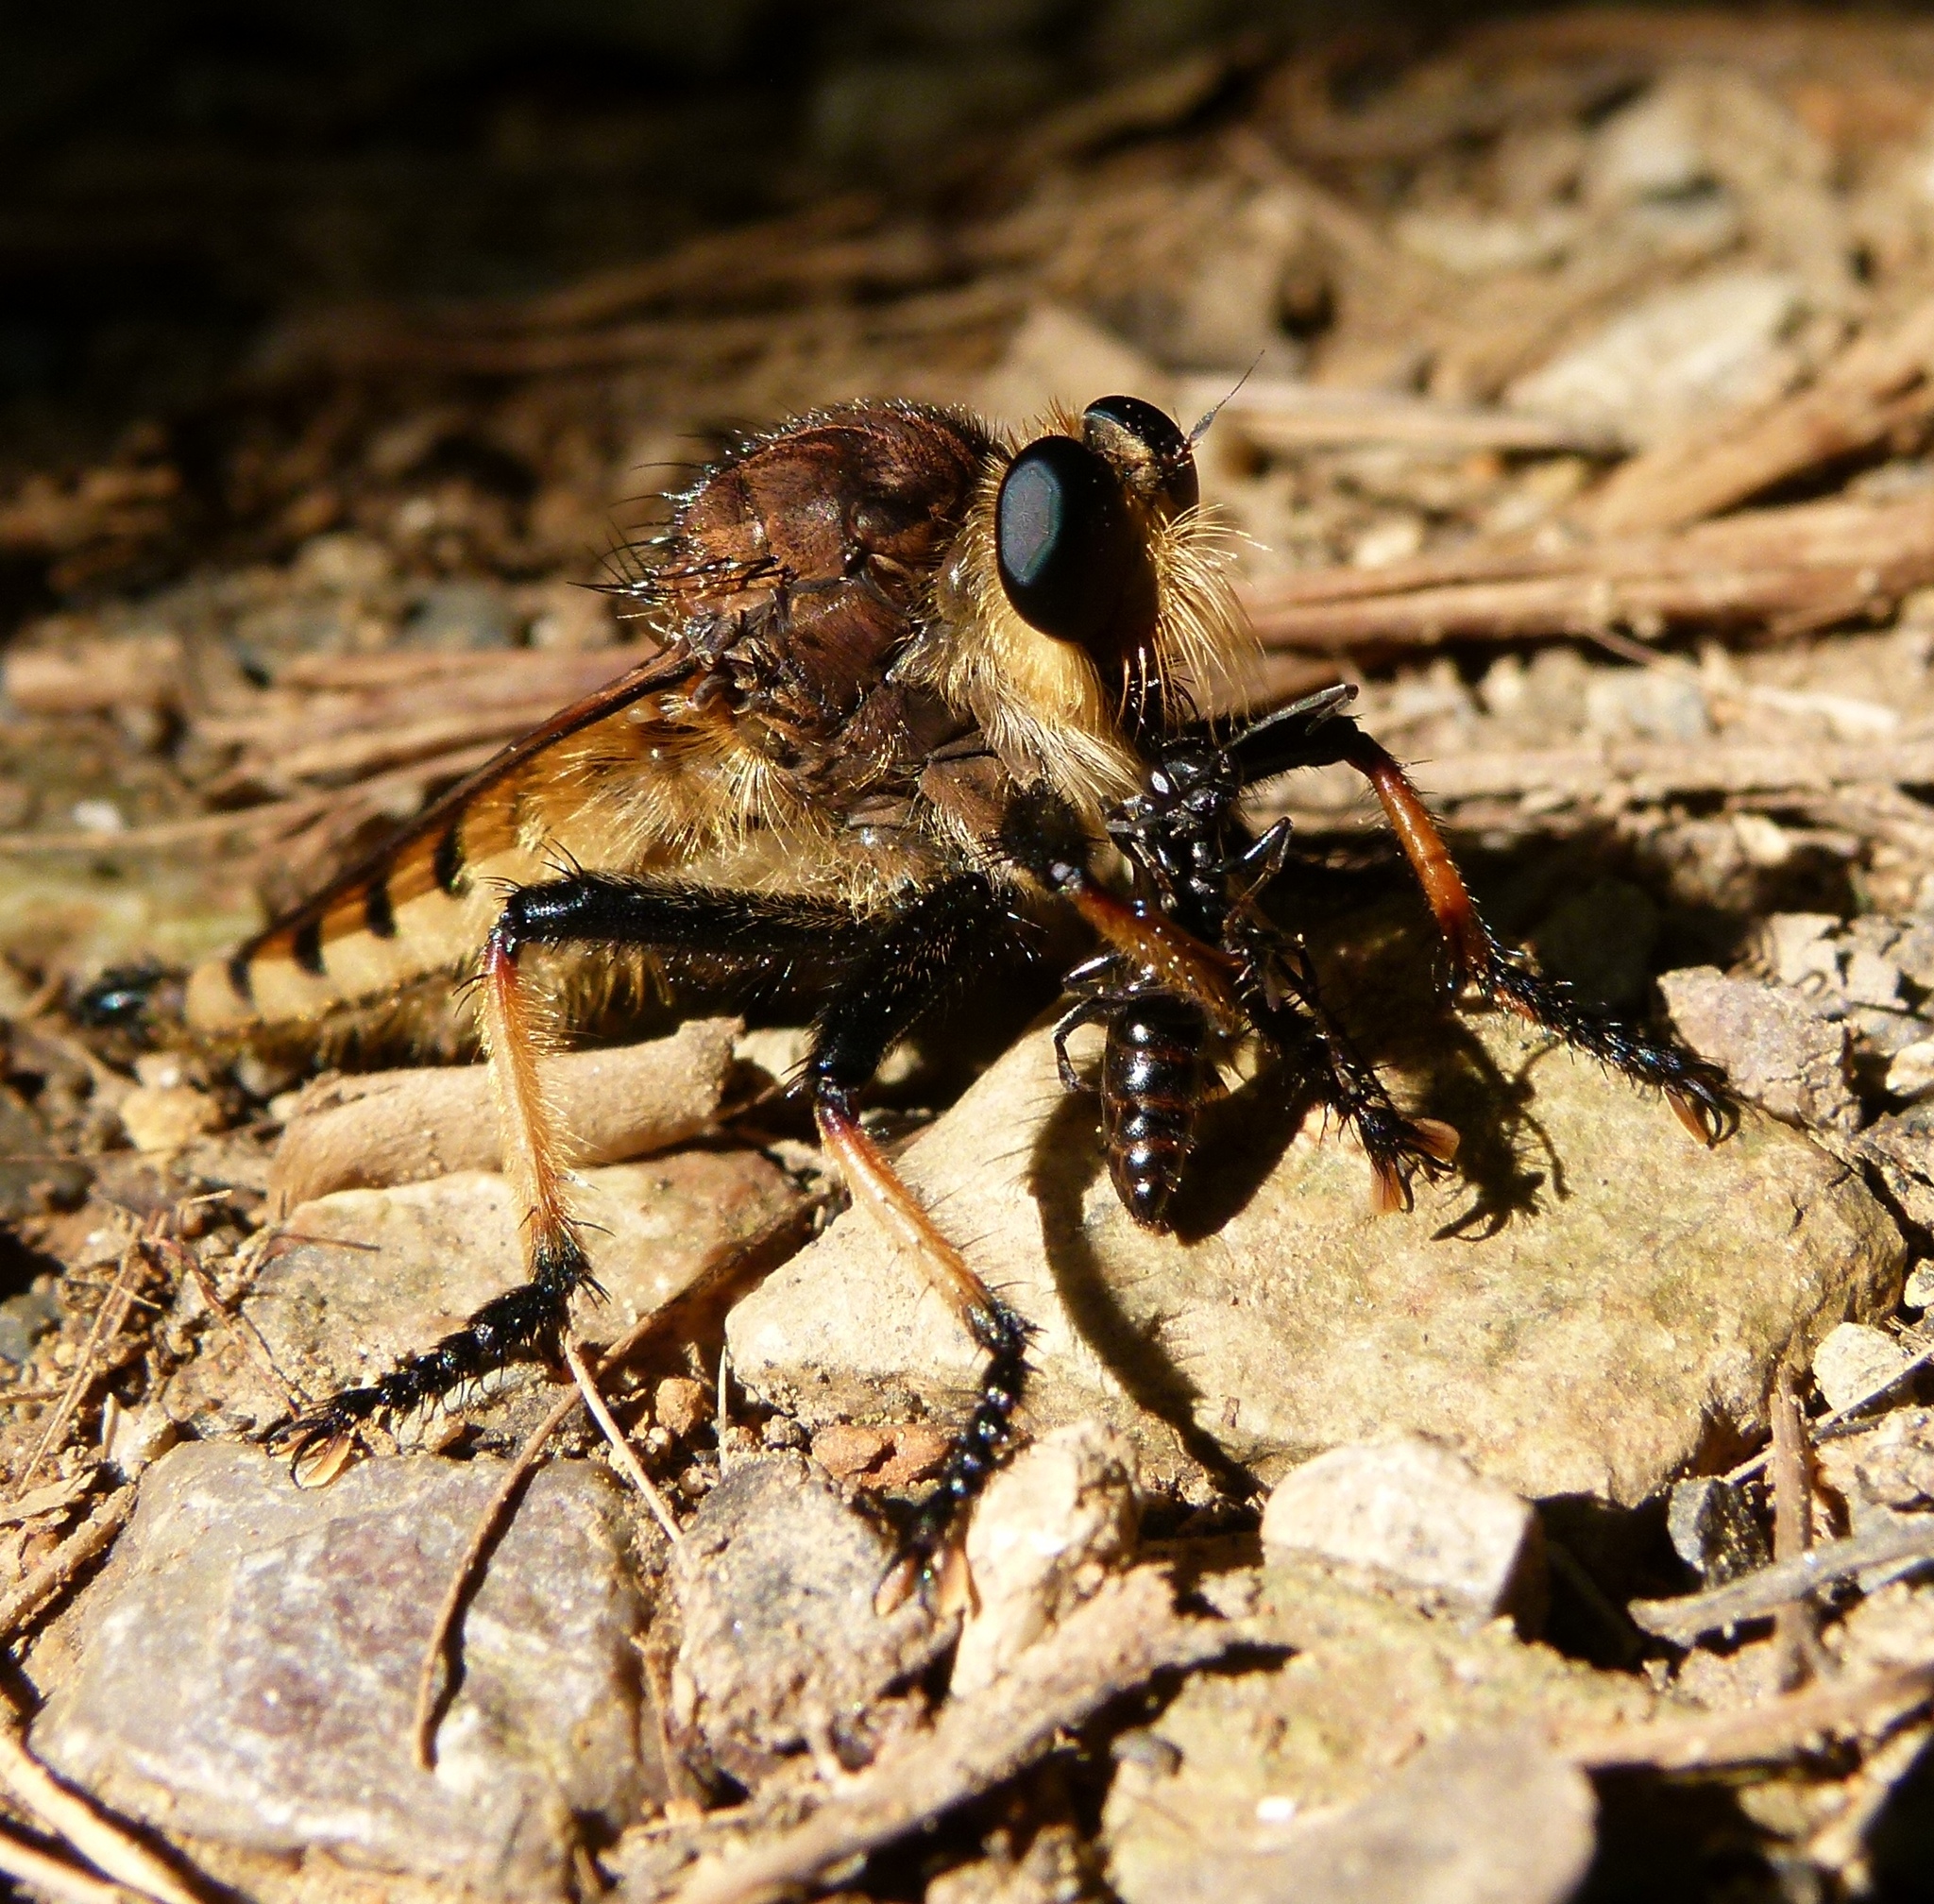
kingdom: Animalia
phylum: Arthropoda
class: Insecta
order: Diptera
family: Asilidae
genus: Promachus
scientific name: Promachus rufipes
